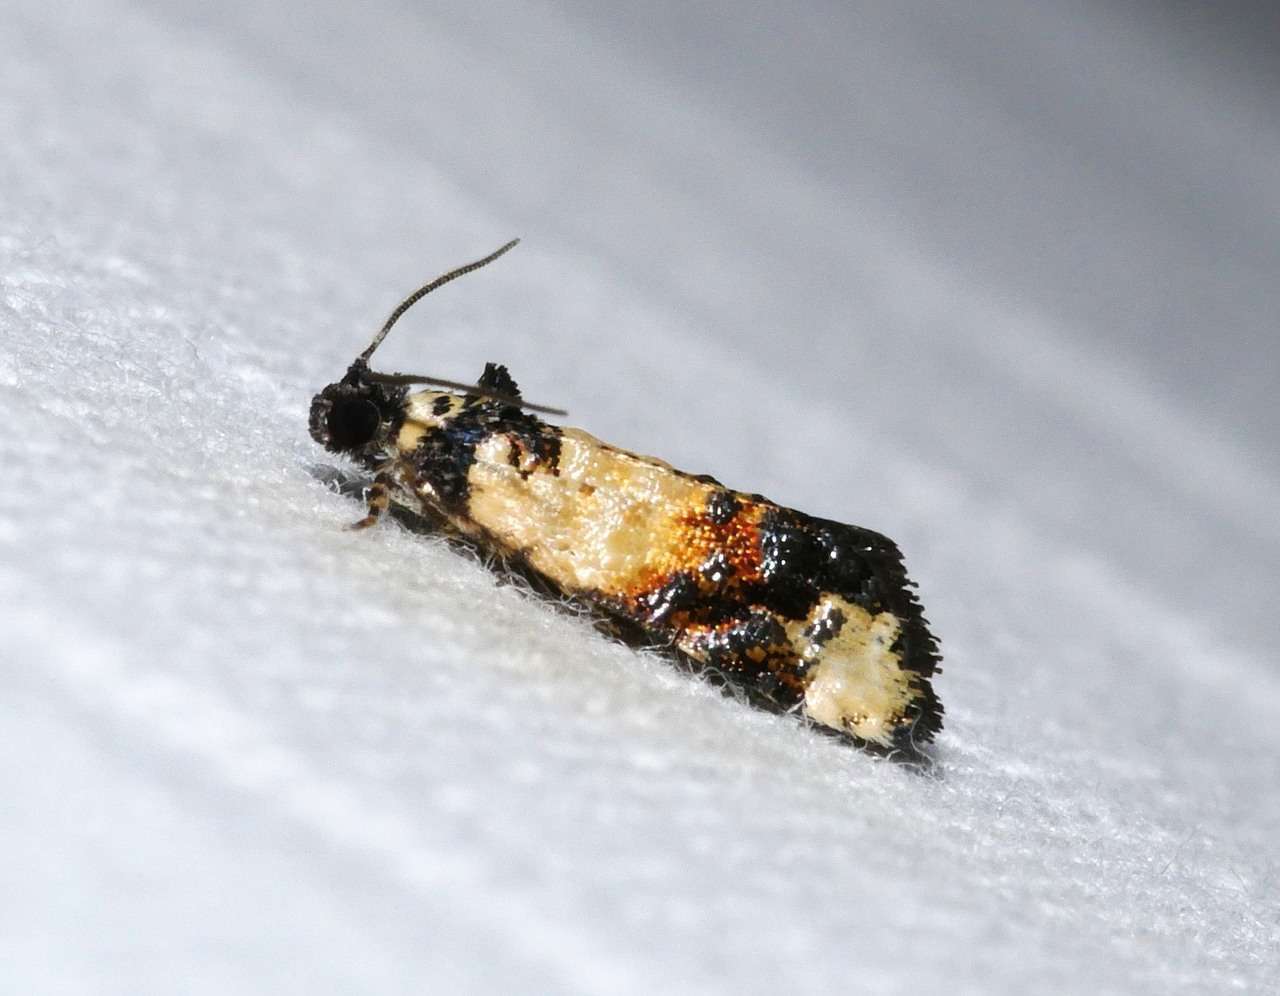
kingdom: Animalia
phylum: Arthropoda
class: Insecta
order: Lepidoptera
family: Tortricidae
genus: Asthenoptycha
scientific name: Asthenoptycha iriodes
